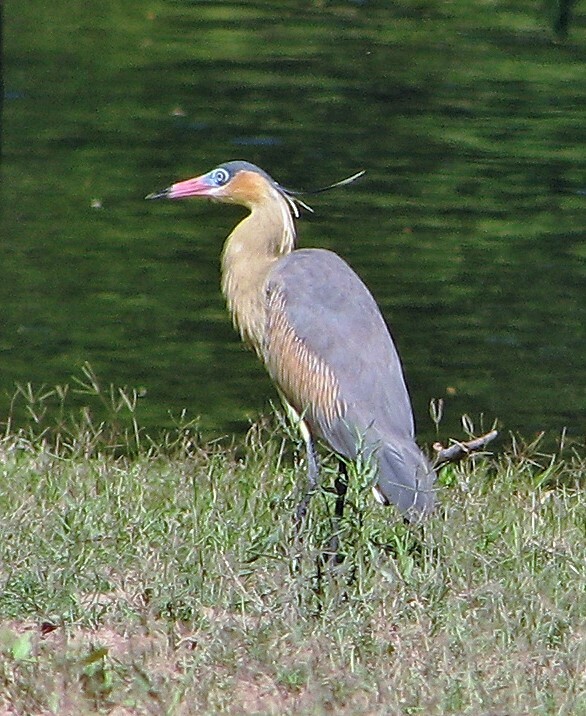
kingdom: Animalia
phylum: Chordata
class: Aves
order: Pelecaniformes
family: Ardeidae
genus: Syrigma
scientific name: Syrigma sibilatrix
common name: Whistling heron
